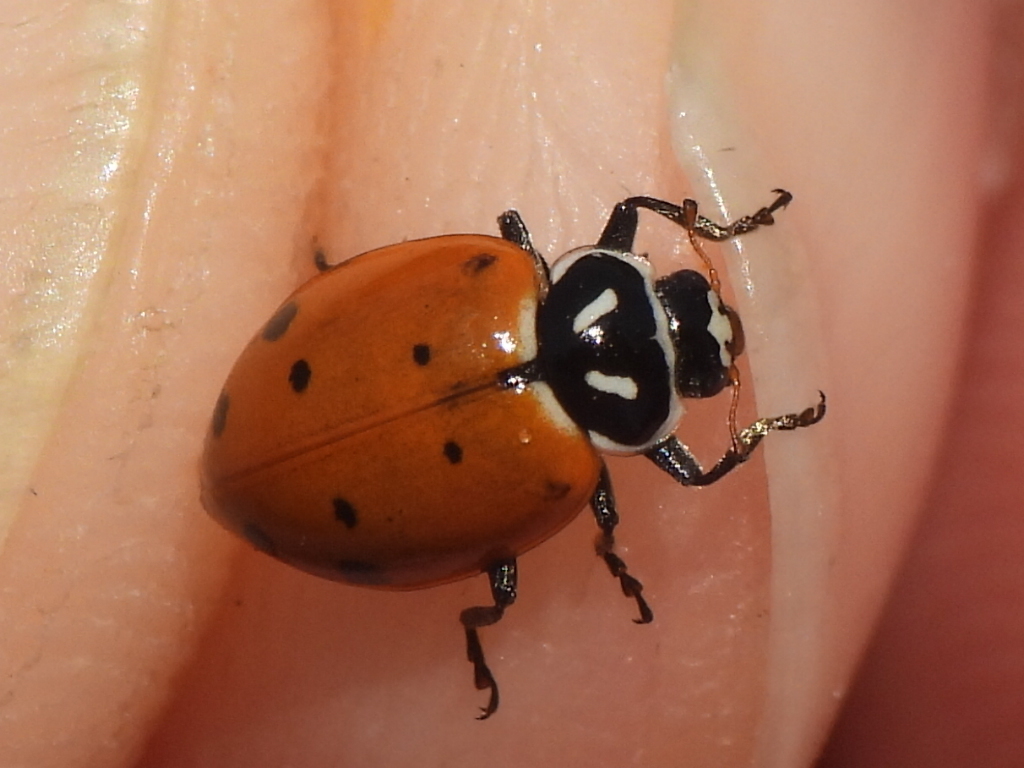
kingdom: Animalia
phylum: Arthropoda
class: Insecta
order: Coleoptera
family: Coccinellidae
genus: Hippodamia
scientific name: Hippodamia convergens
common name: Convergent lady beetle
